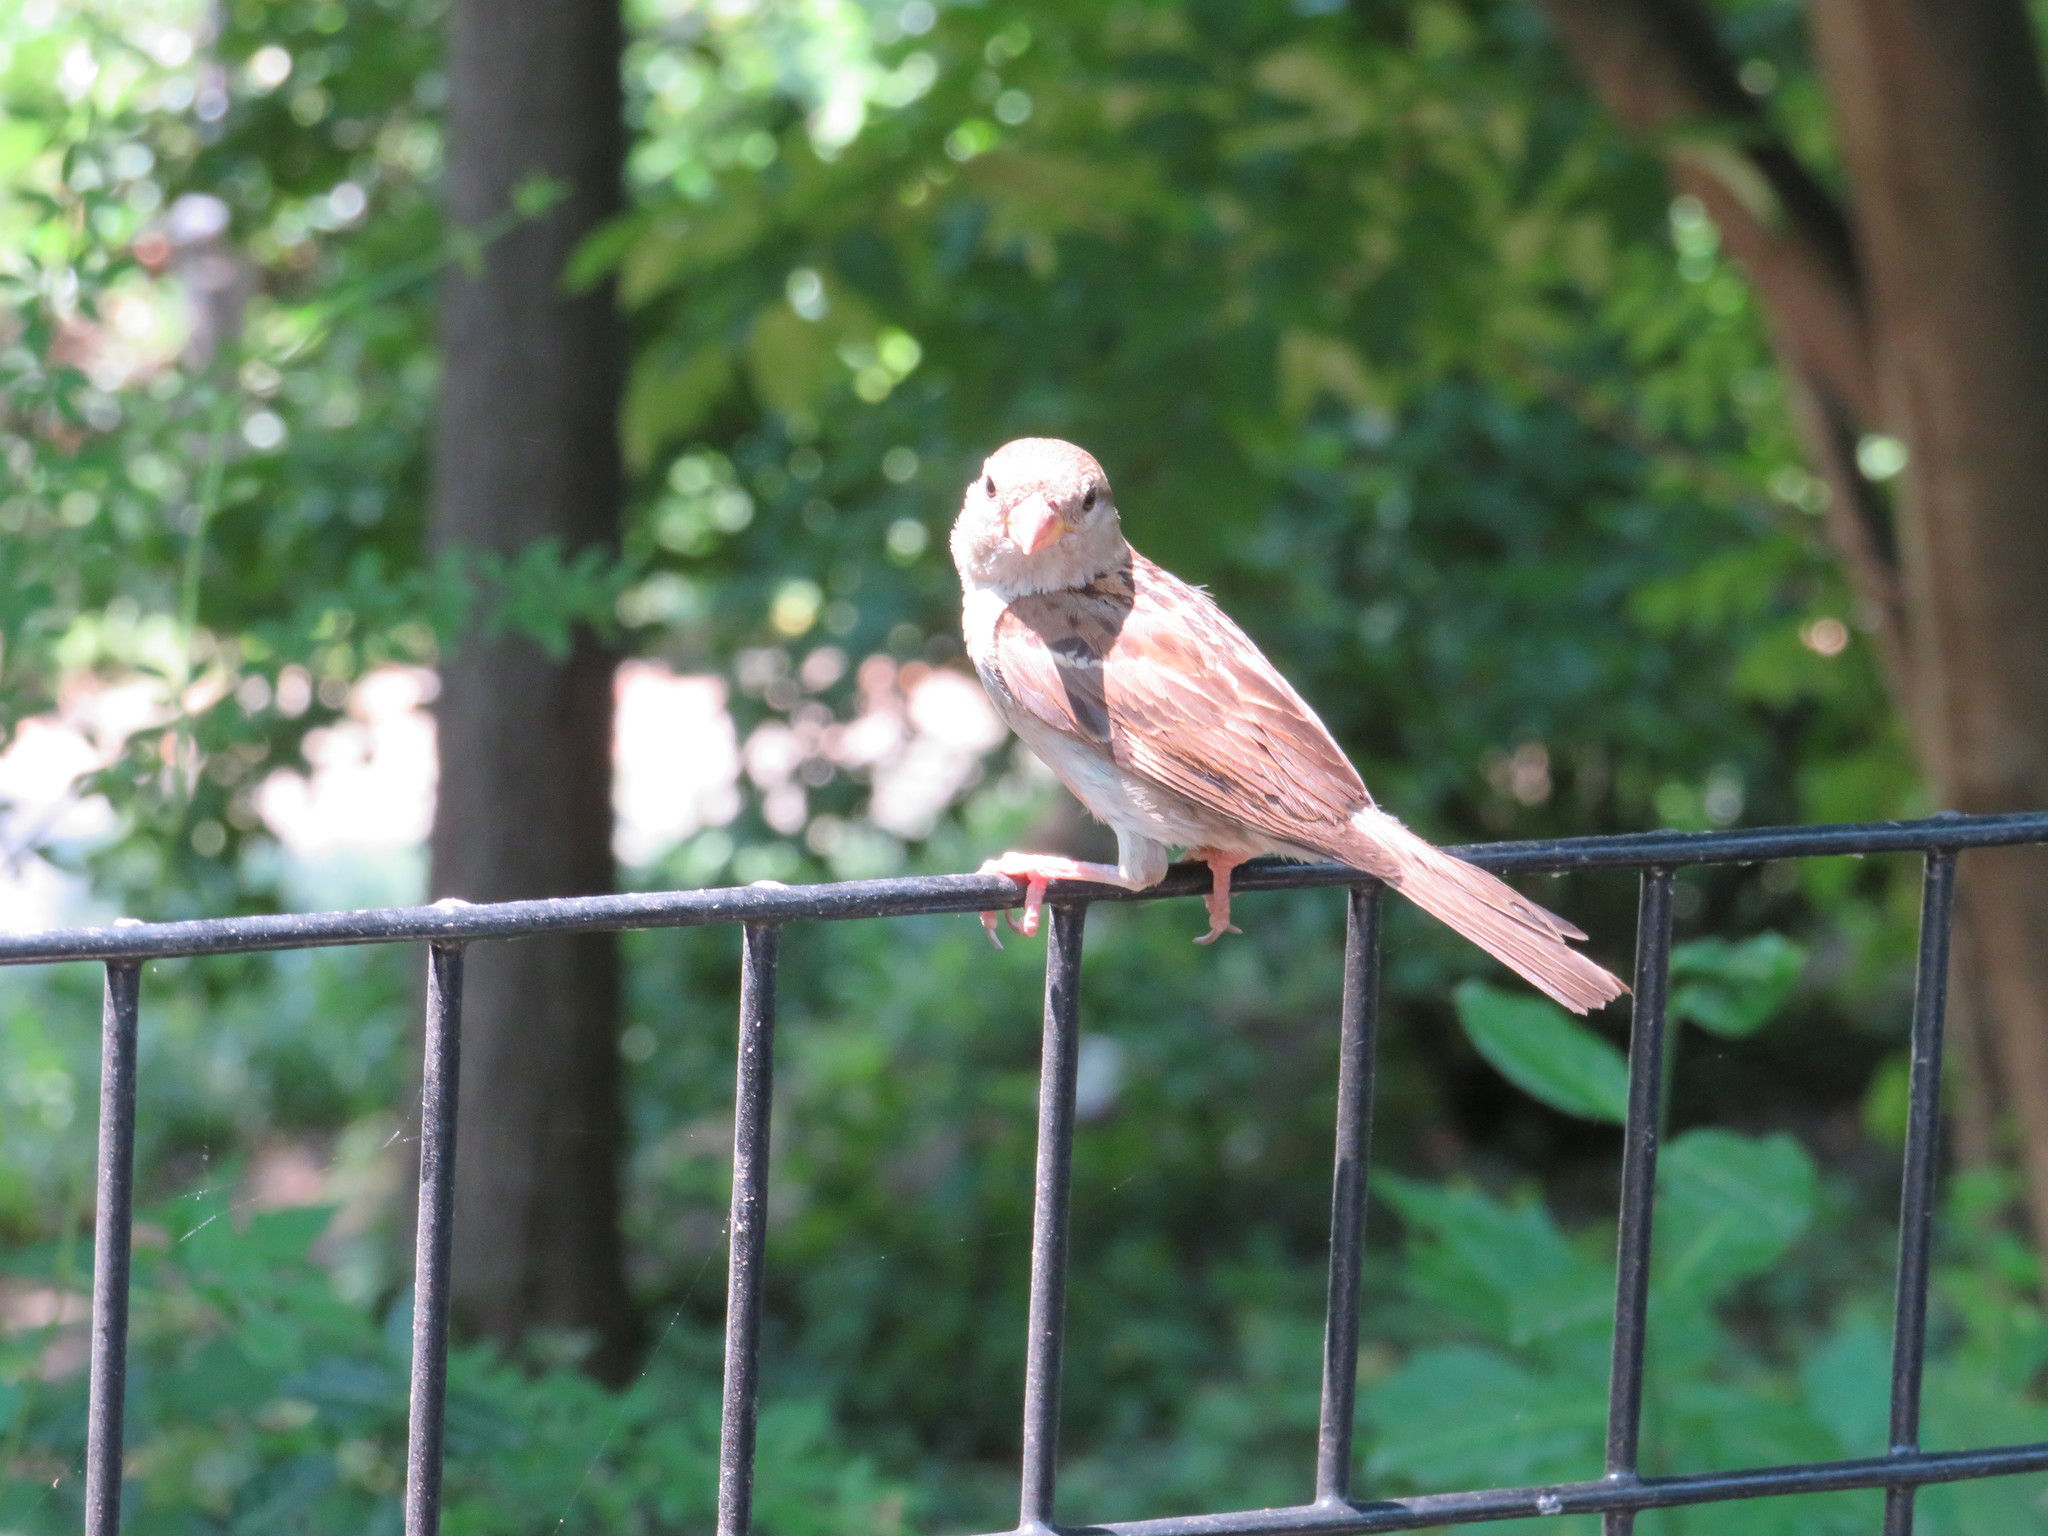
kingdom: Animalia
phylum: Chordata
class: Aves
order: Passeriformes
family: Passeridae
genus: Passer
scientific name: Passer domesticus
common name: House sparrow
